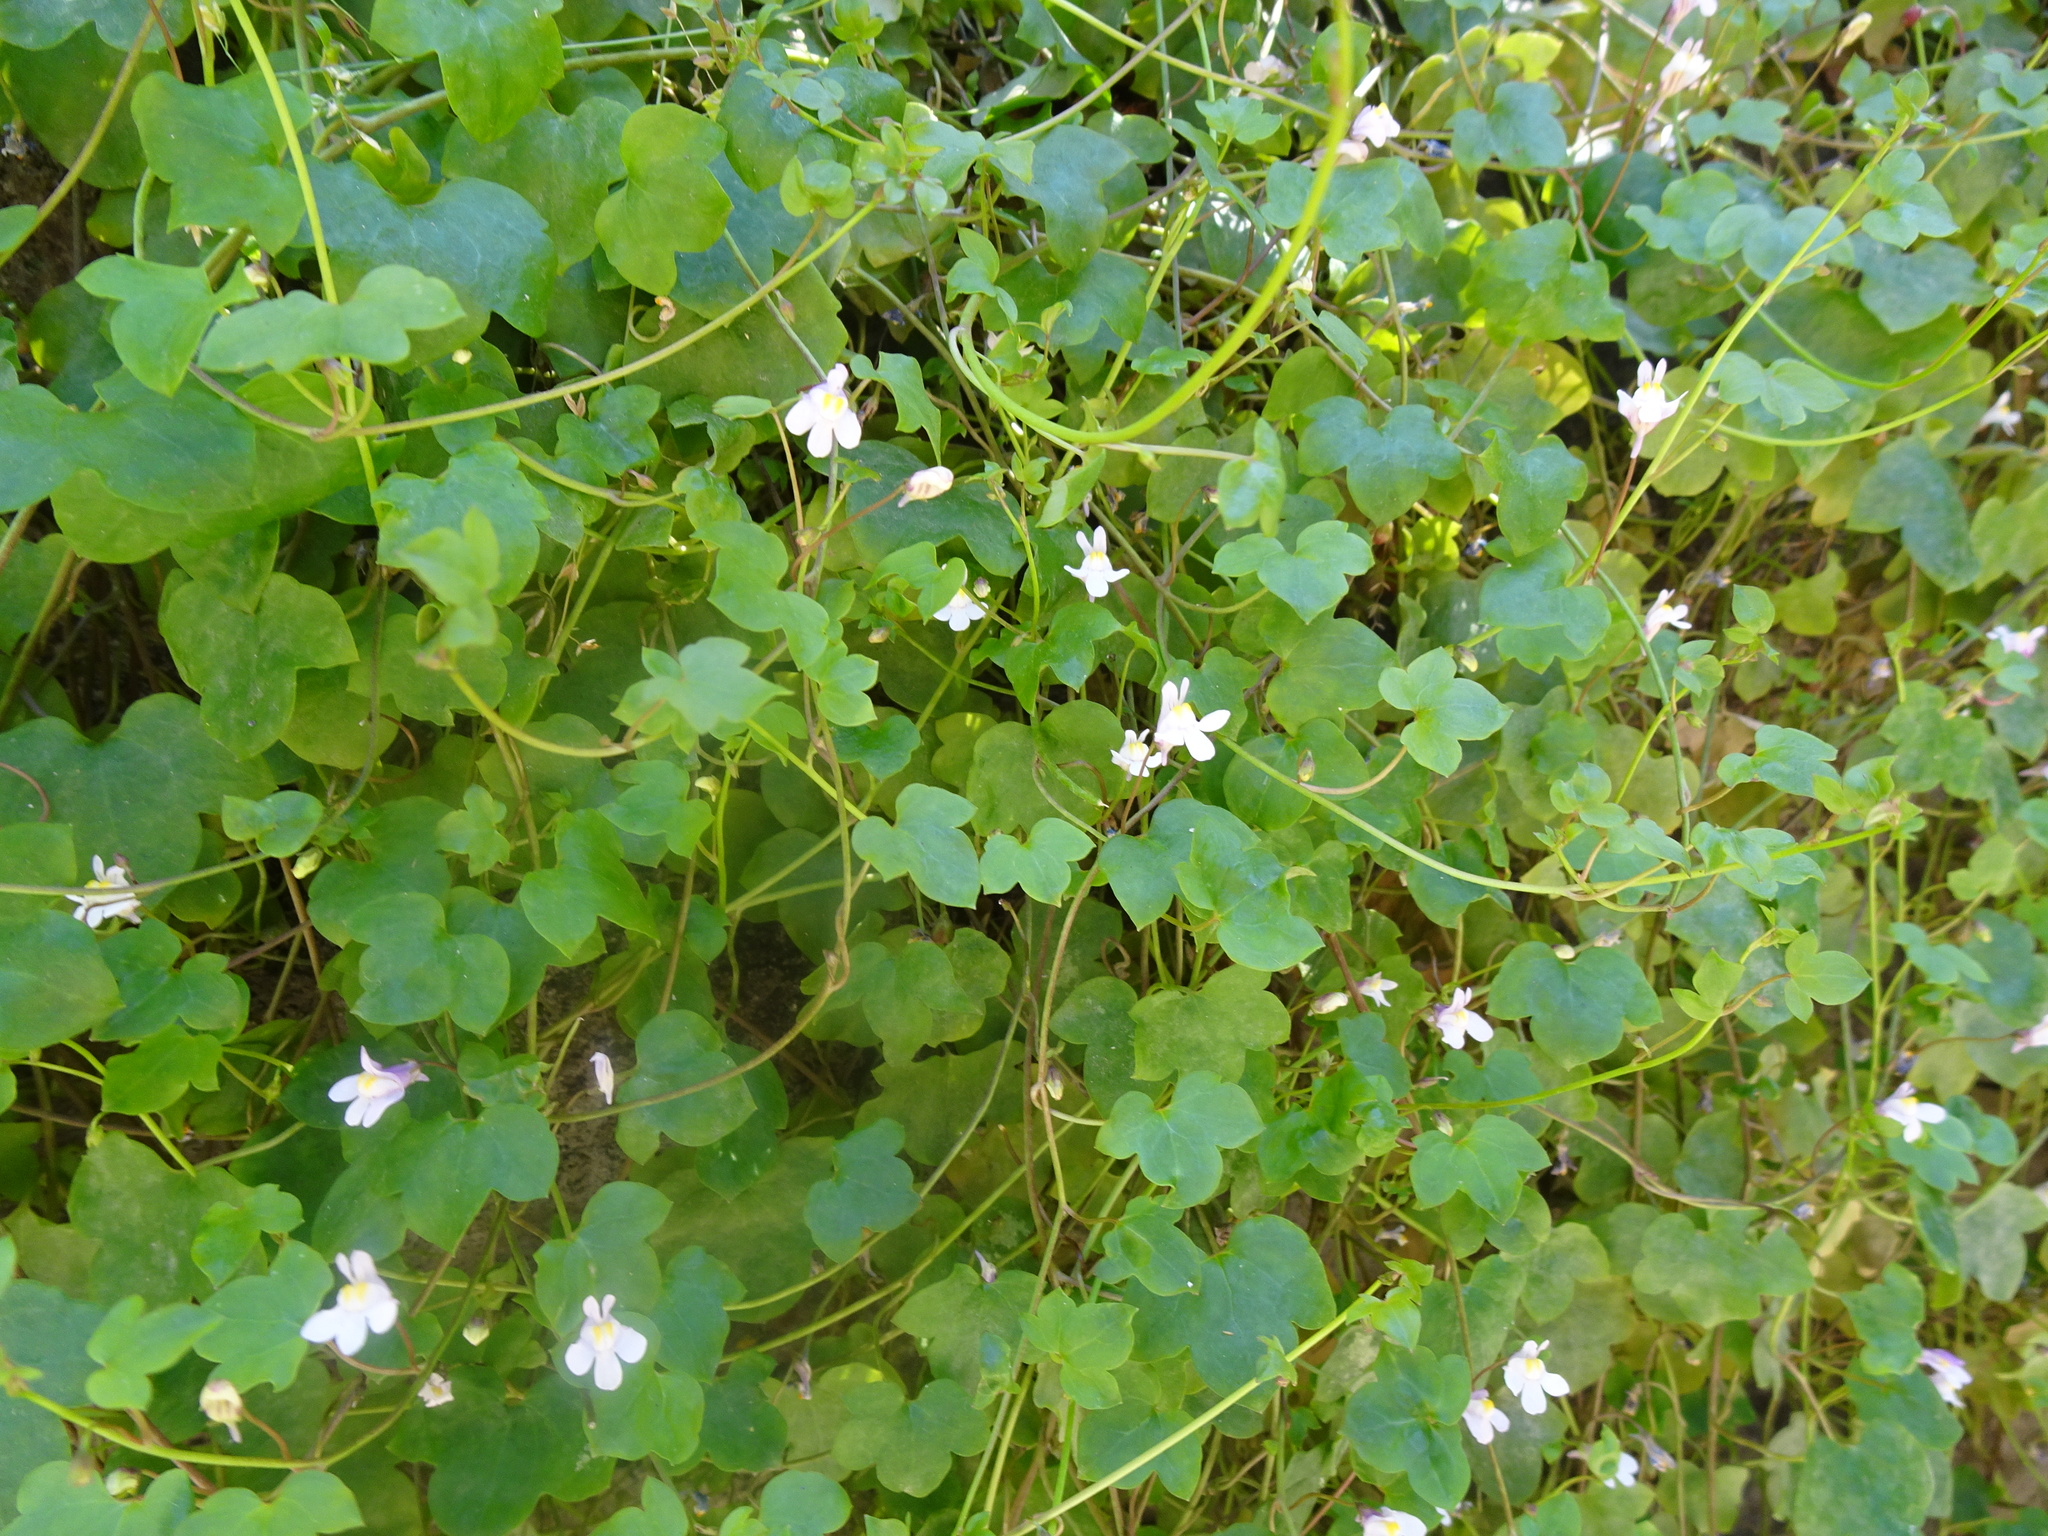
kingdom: Plantae
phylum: Tracheophyta
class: Magnoliopsida
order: Lamiales
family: Plantaginaceae
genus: Cymbalaria
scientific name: Cymbalaria muralis
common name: Ivy-leaved toadflax
